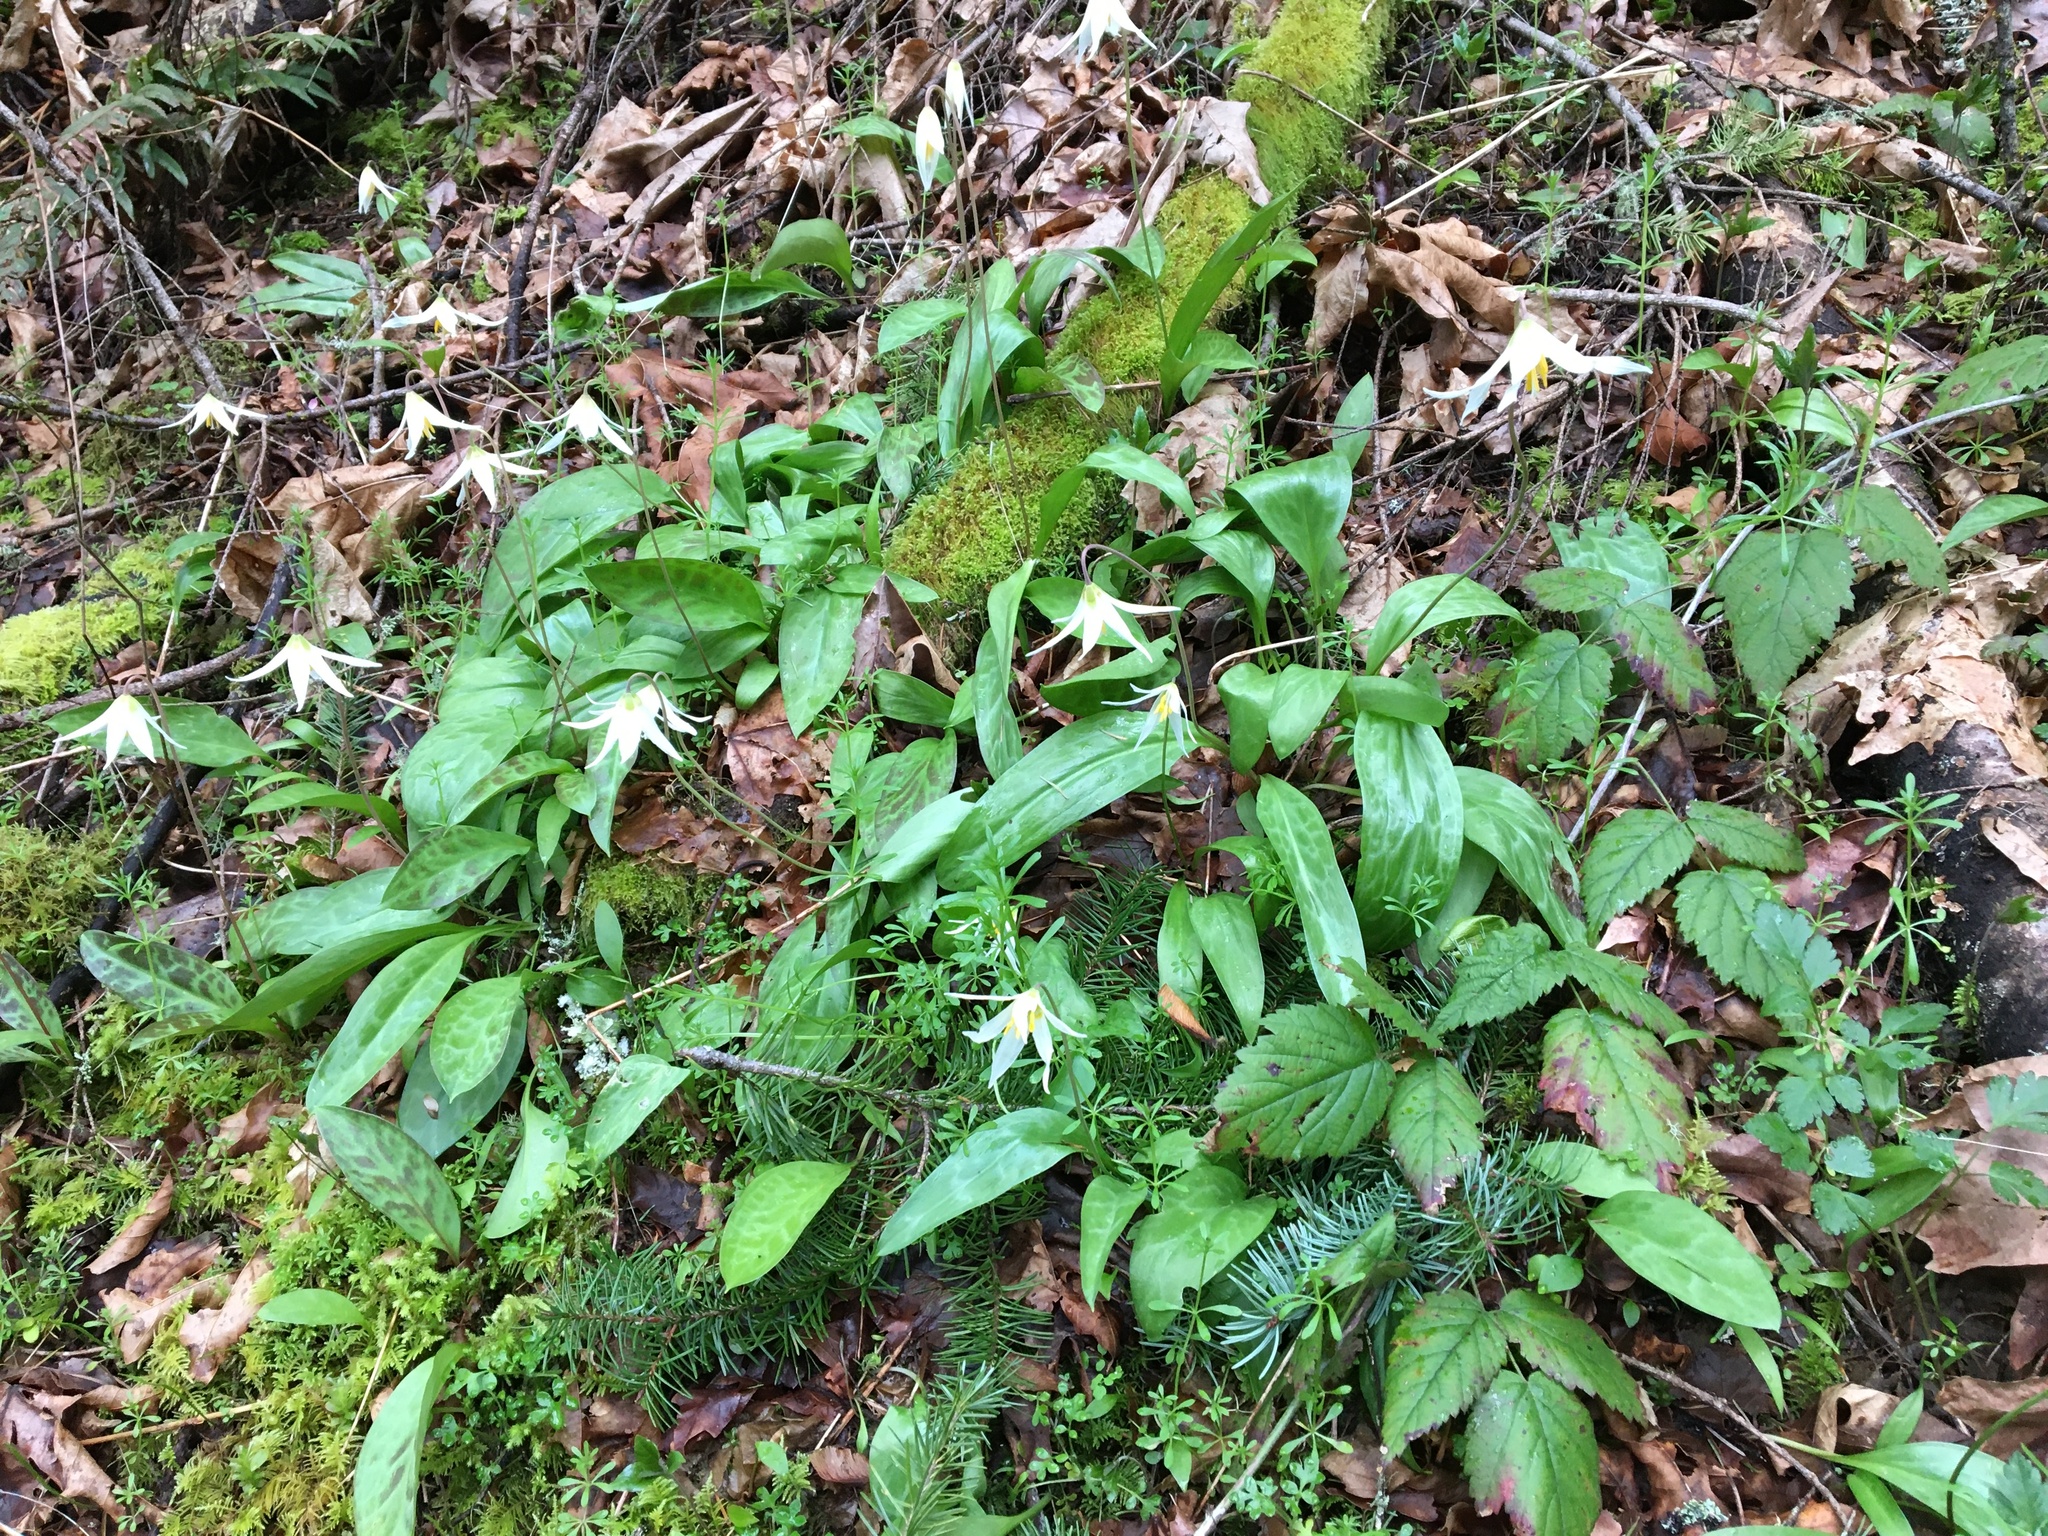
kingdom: Plantae
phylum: Tracheophyta
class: Liliopsida
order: Liliales
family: Liliaceae
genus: Erythronium
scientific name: Erythronium oregonum
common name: Giant adder's-tongue
